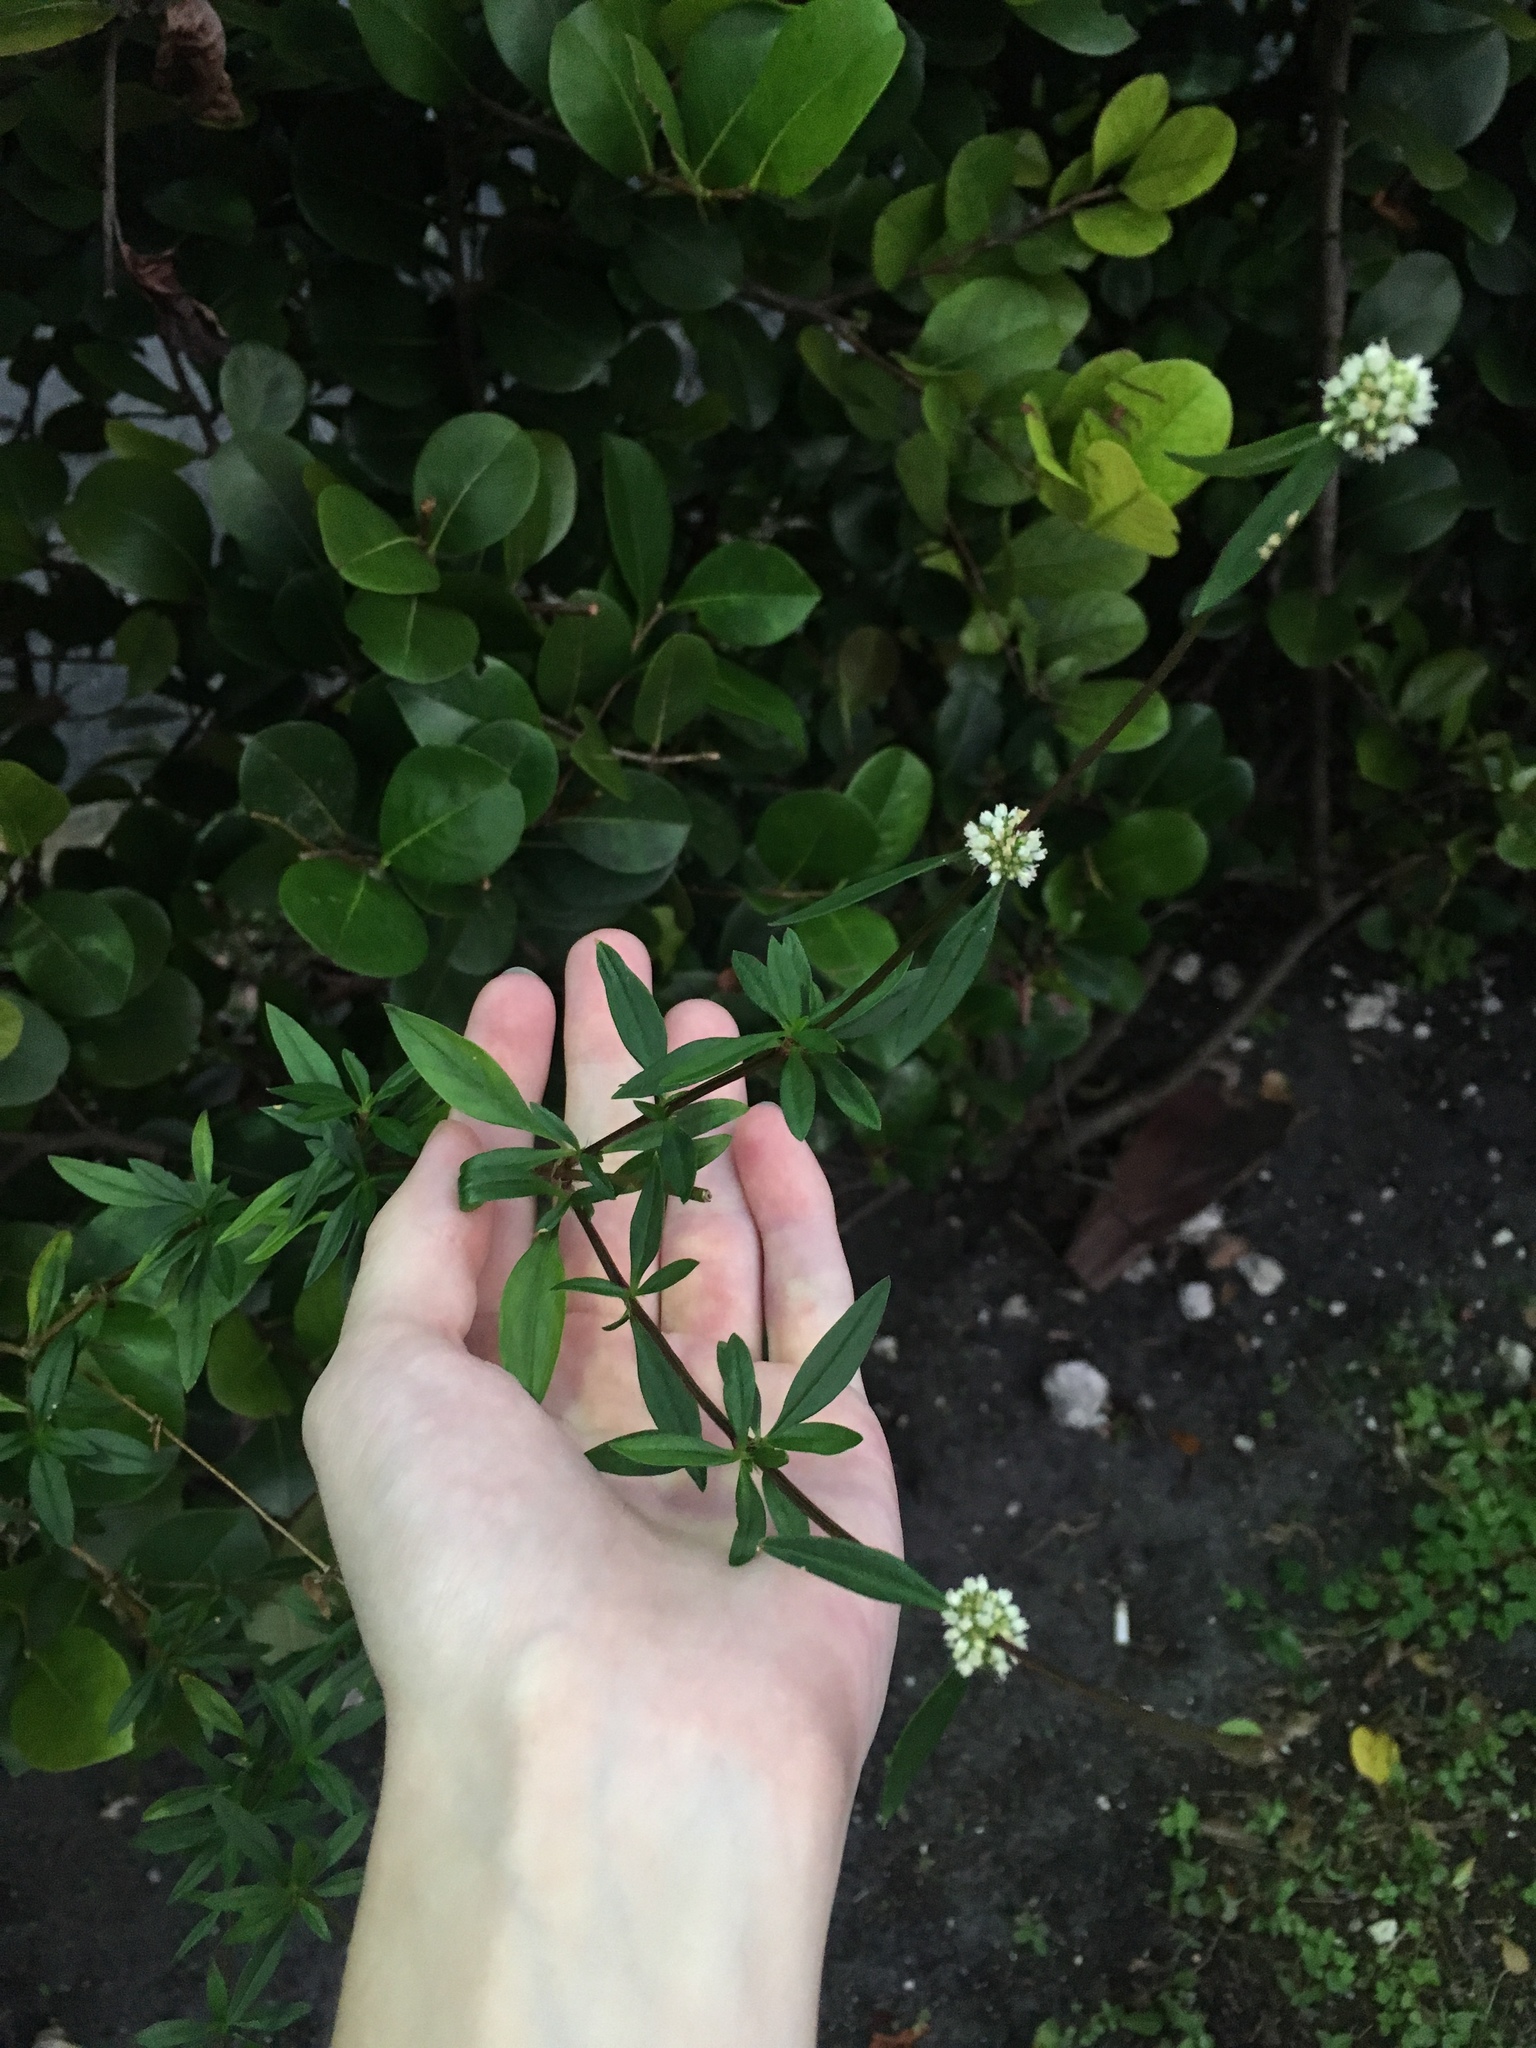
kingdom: Plantae
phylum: Tracheophyta
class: Magnoliopsida
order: Gentianales
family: Rubiaceae
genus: Spermacoce
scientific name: Spermacoce verticillata
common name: Shrubby false buttonweed
